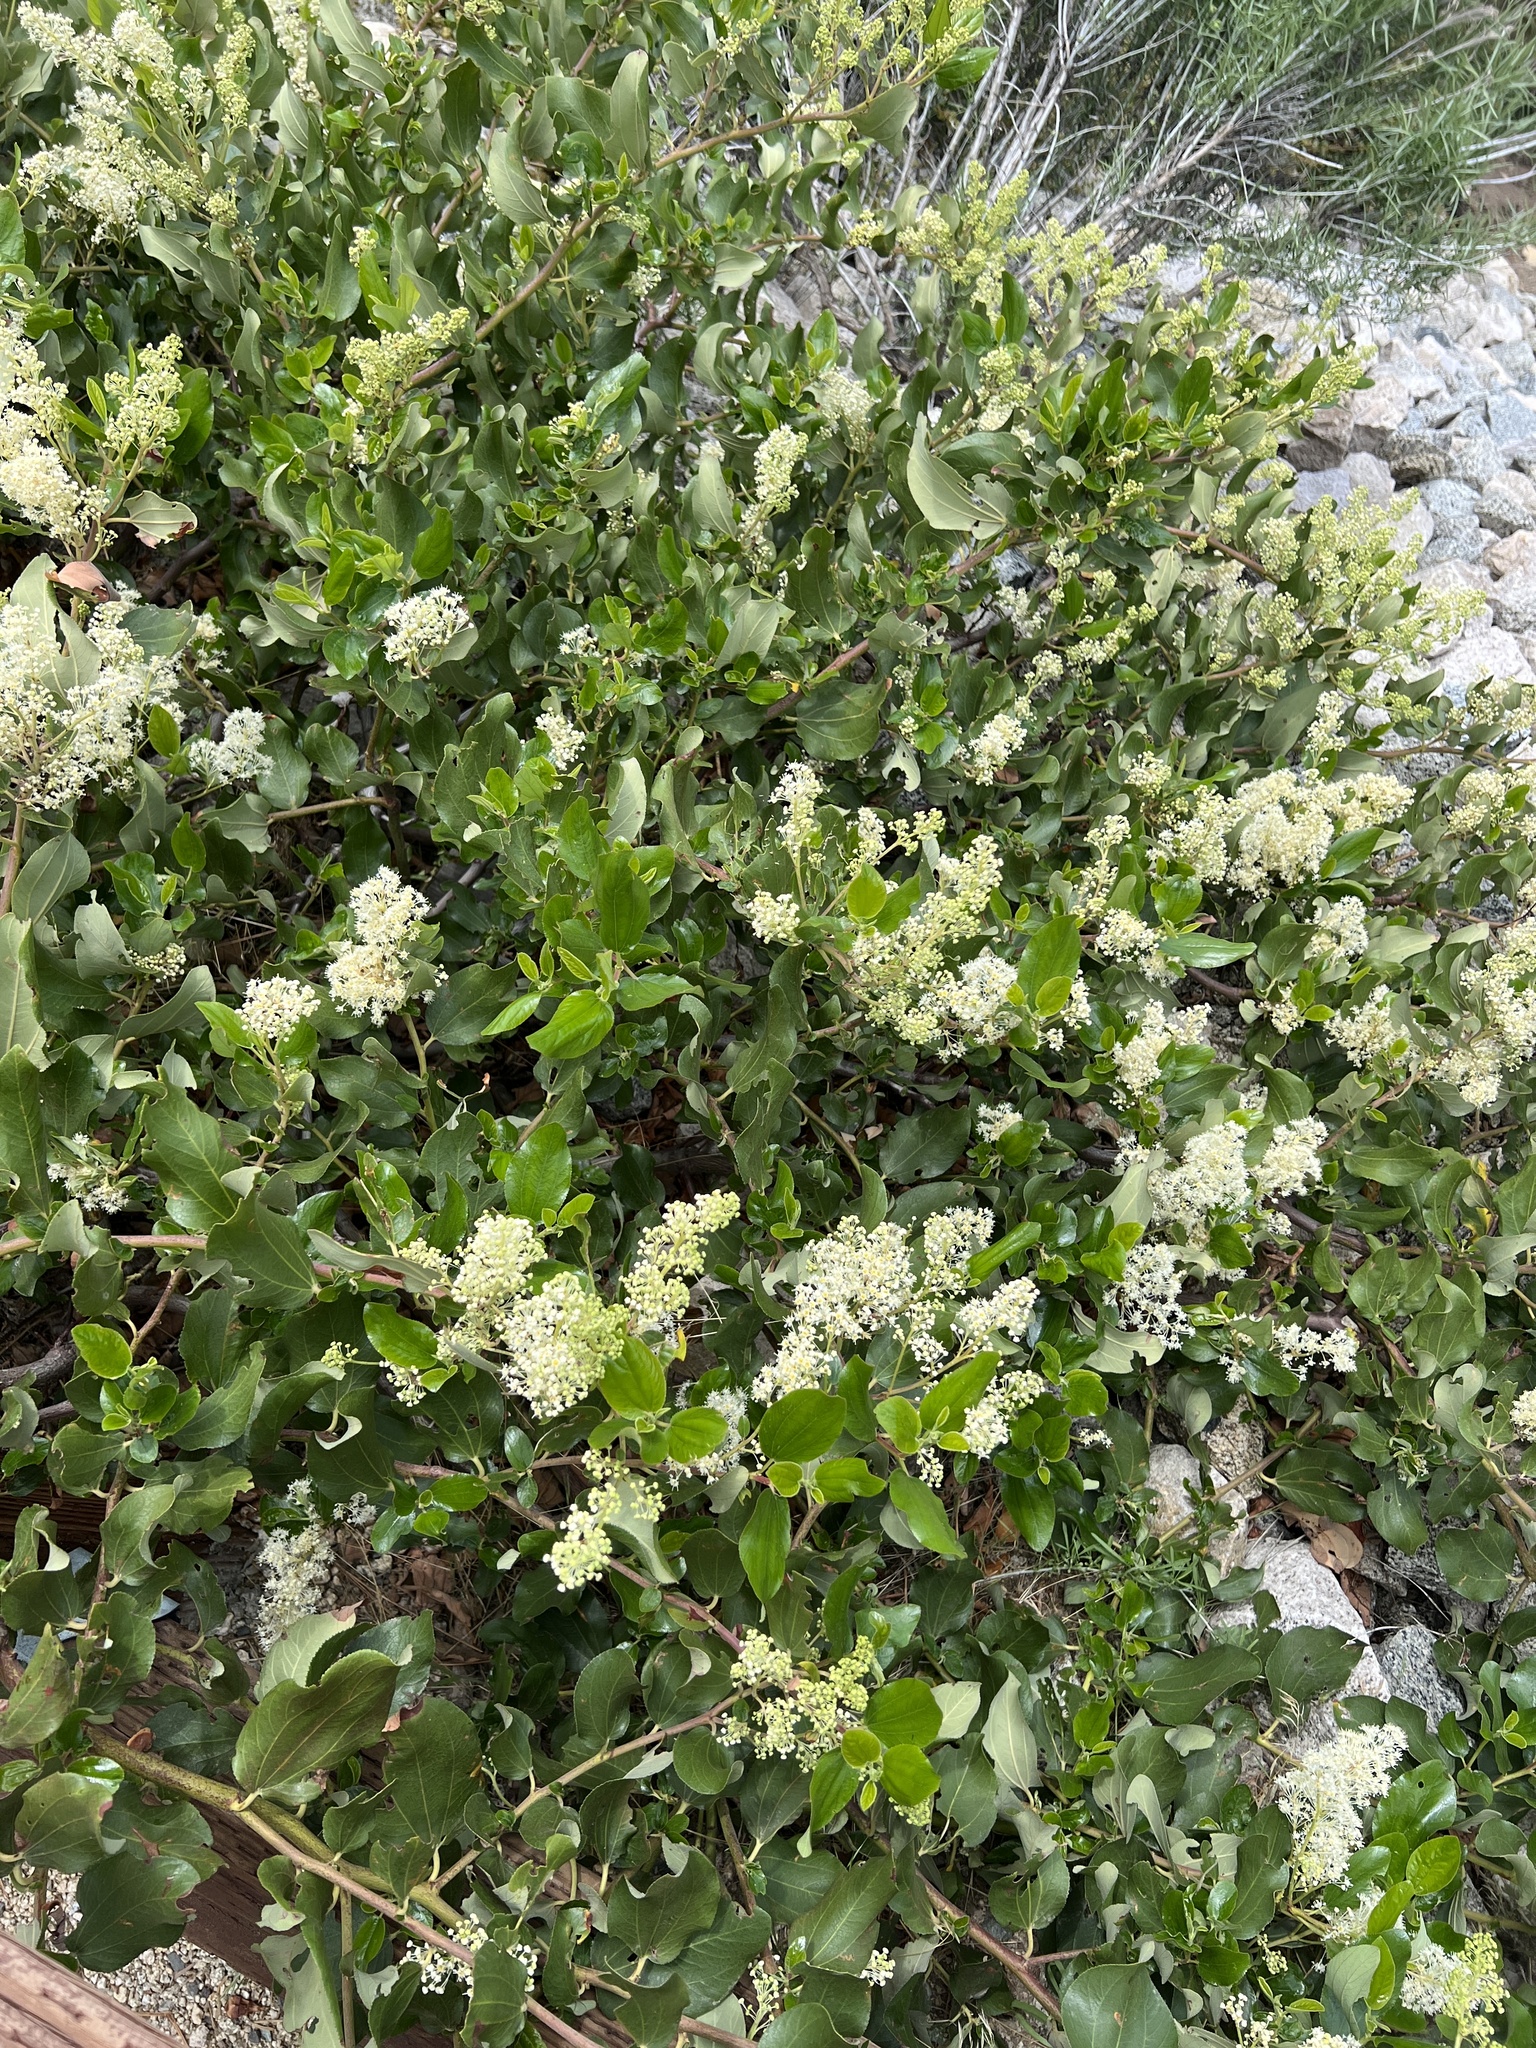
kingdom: Plantae
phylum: Tracheophyta
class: Magnoliopsida
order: Rosales
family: Rhamnaceae
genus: Ceanothus
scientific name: Ceanothus velutinus
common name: Snowbrush
